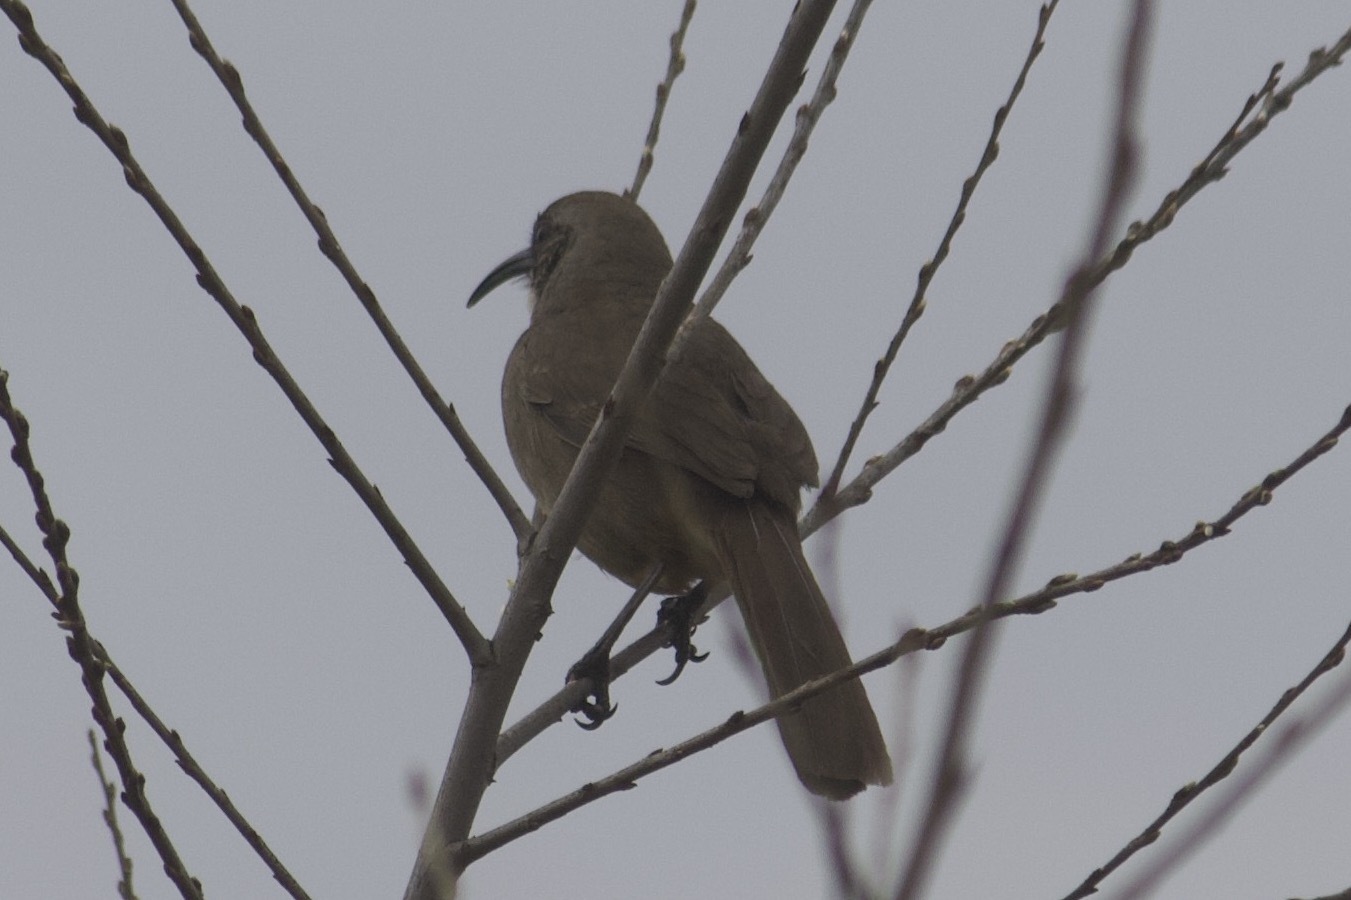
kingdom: Animalia
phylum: Chordata
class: Aves
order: Passeriformes
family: Mimidae
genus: Toxostoma
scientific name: Toxostoma redivivum
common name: California thrasher
